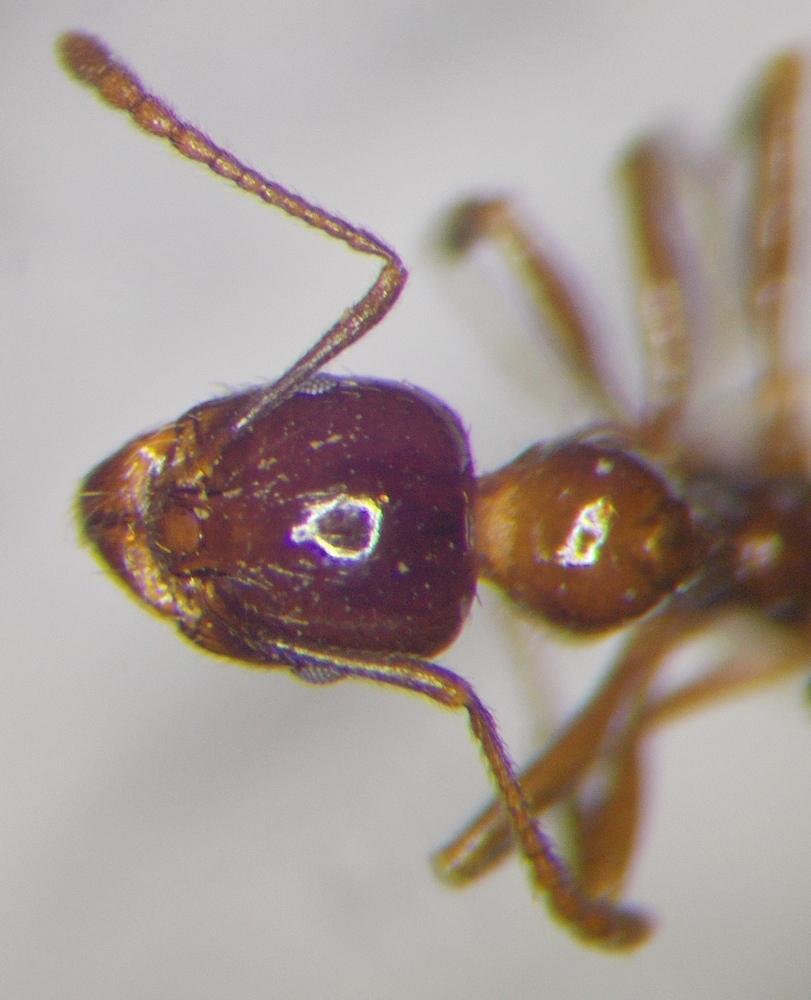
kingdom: Animalia
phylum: Arthropoda
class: Insecta
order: Hymenoptera
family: Formicidae
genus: Aphaenogaster
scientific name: Aphaenogaster subterraneoides
